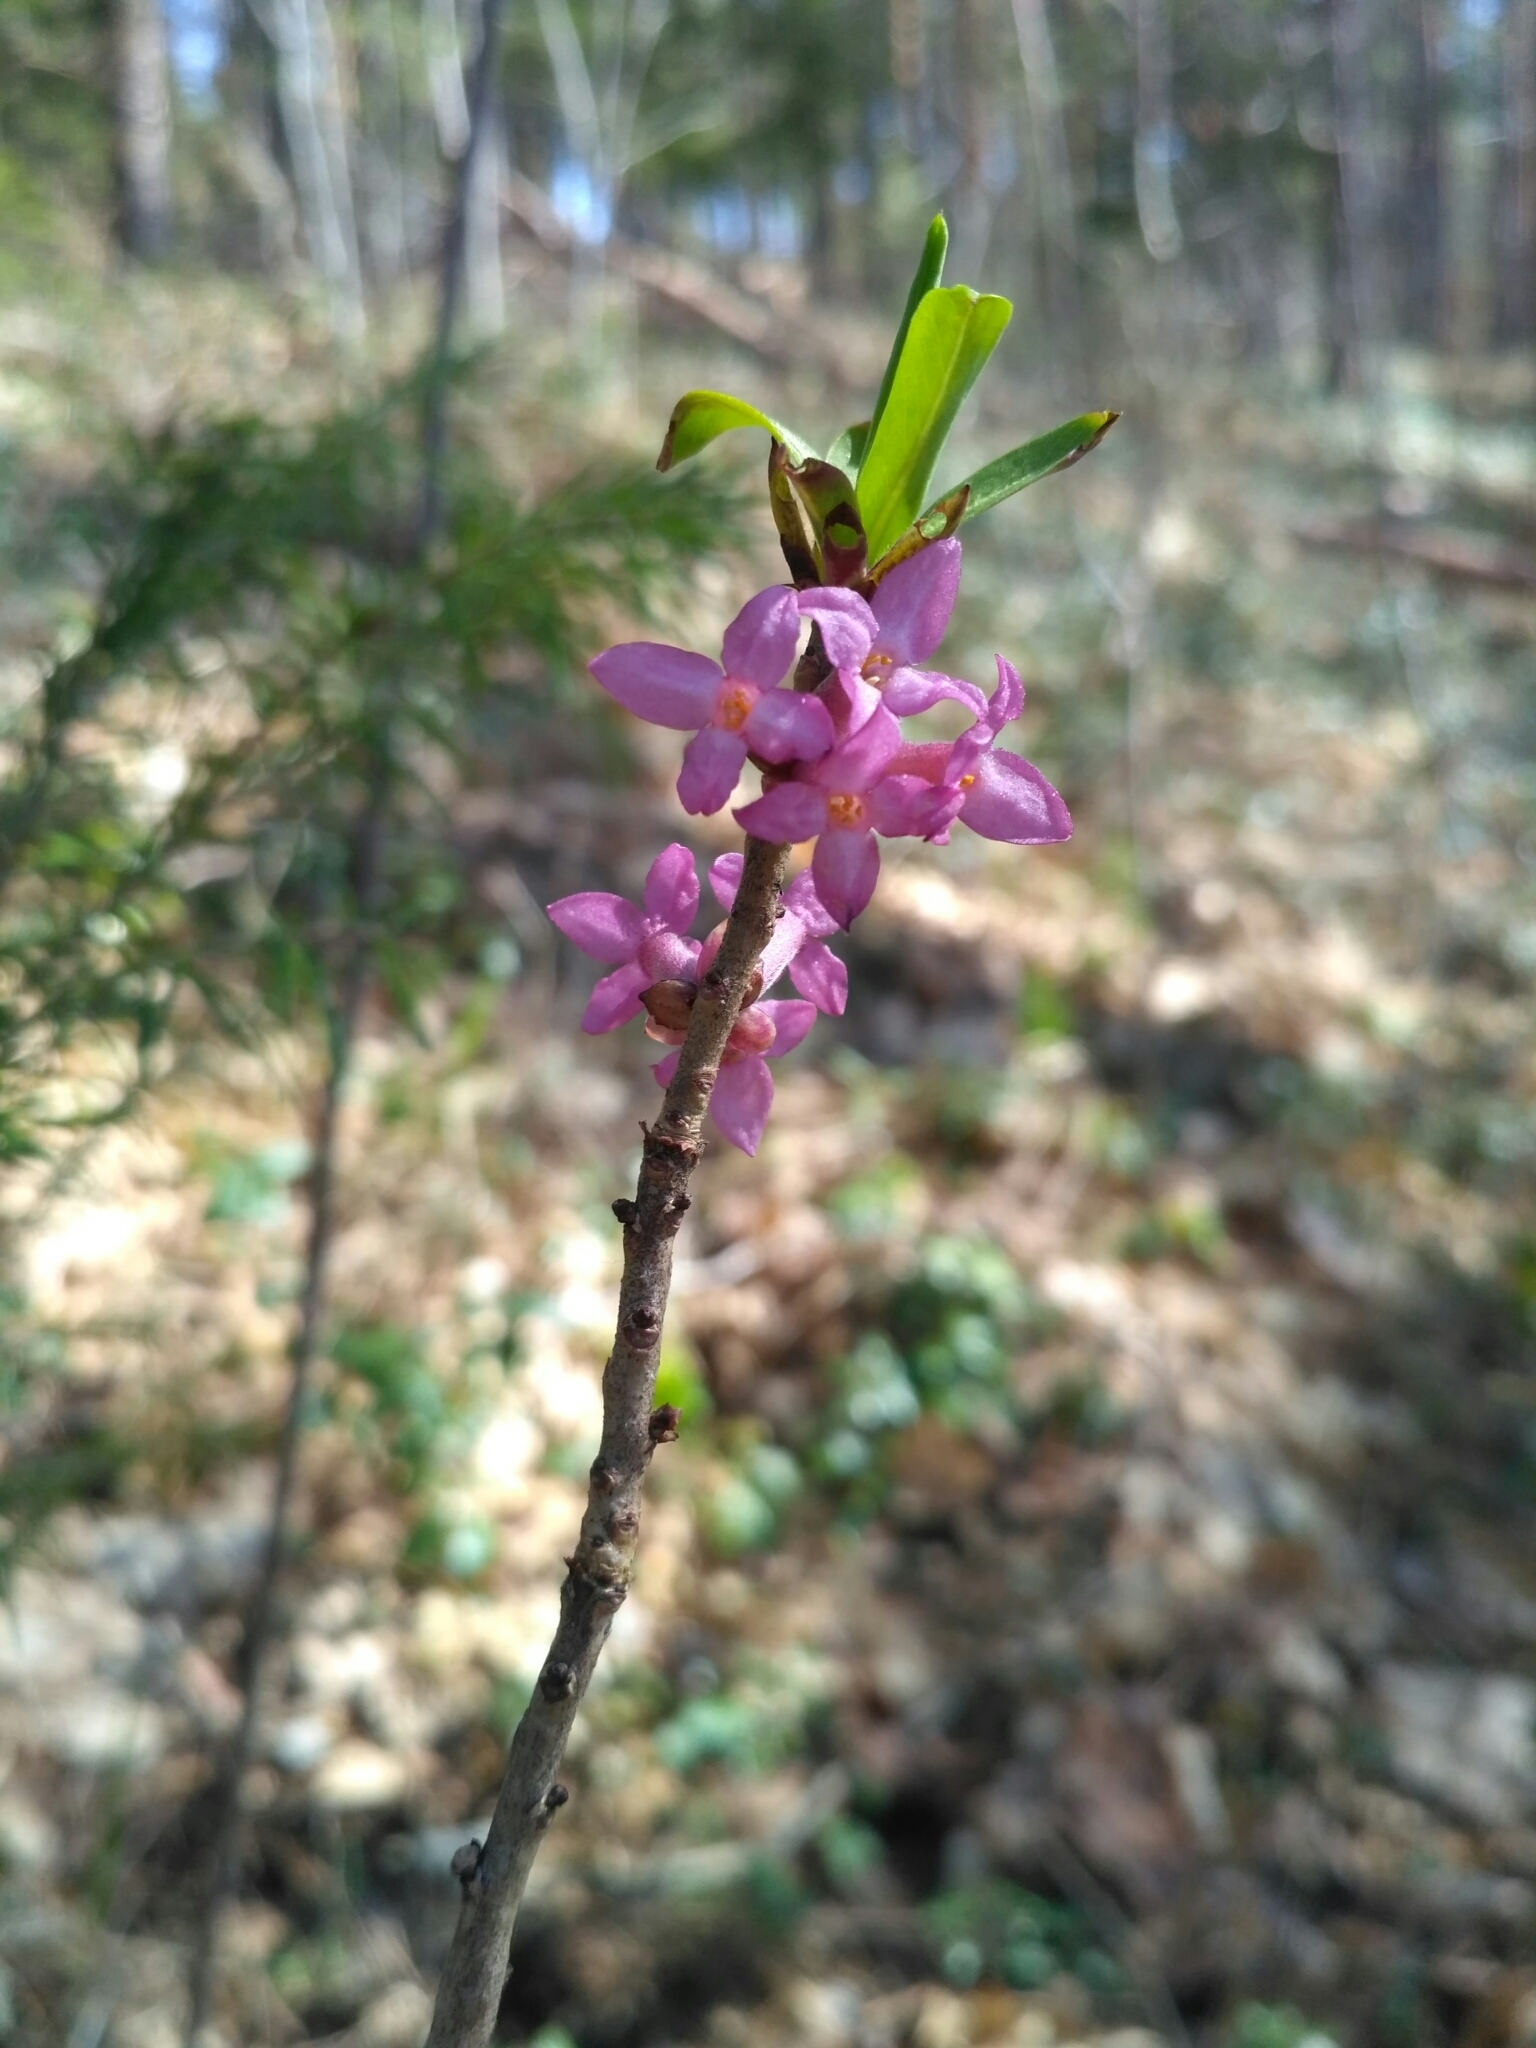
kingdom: Plantae
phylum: Tracheophyta
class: Magnoliopsida
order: Malvales
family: Thymelaeaceae
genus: Daphne
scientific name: Daphne mezereum
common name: Mezereon
